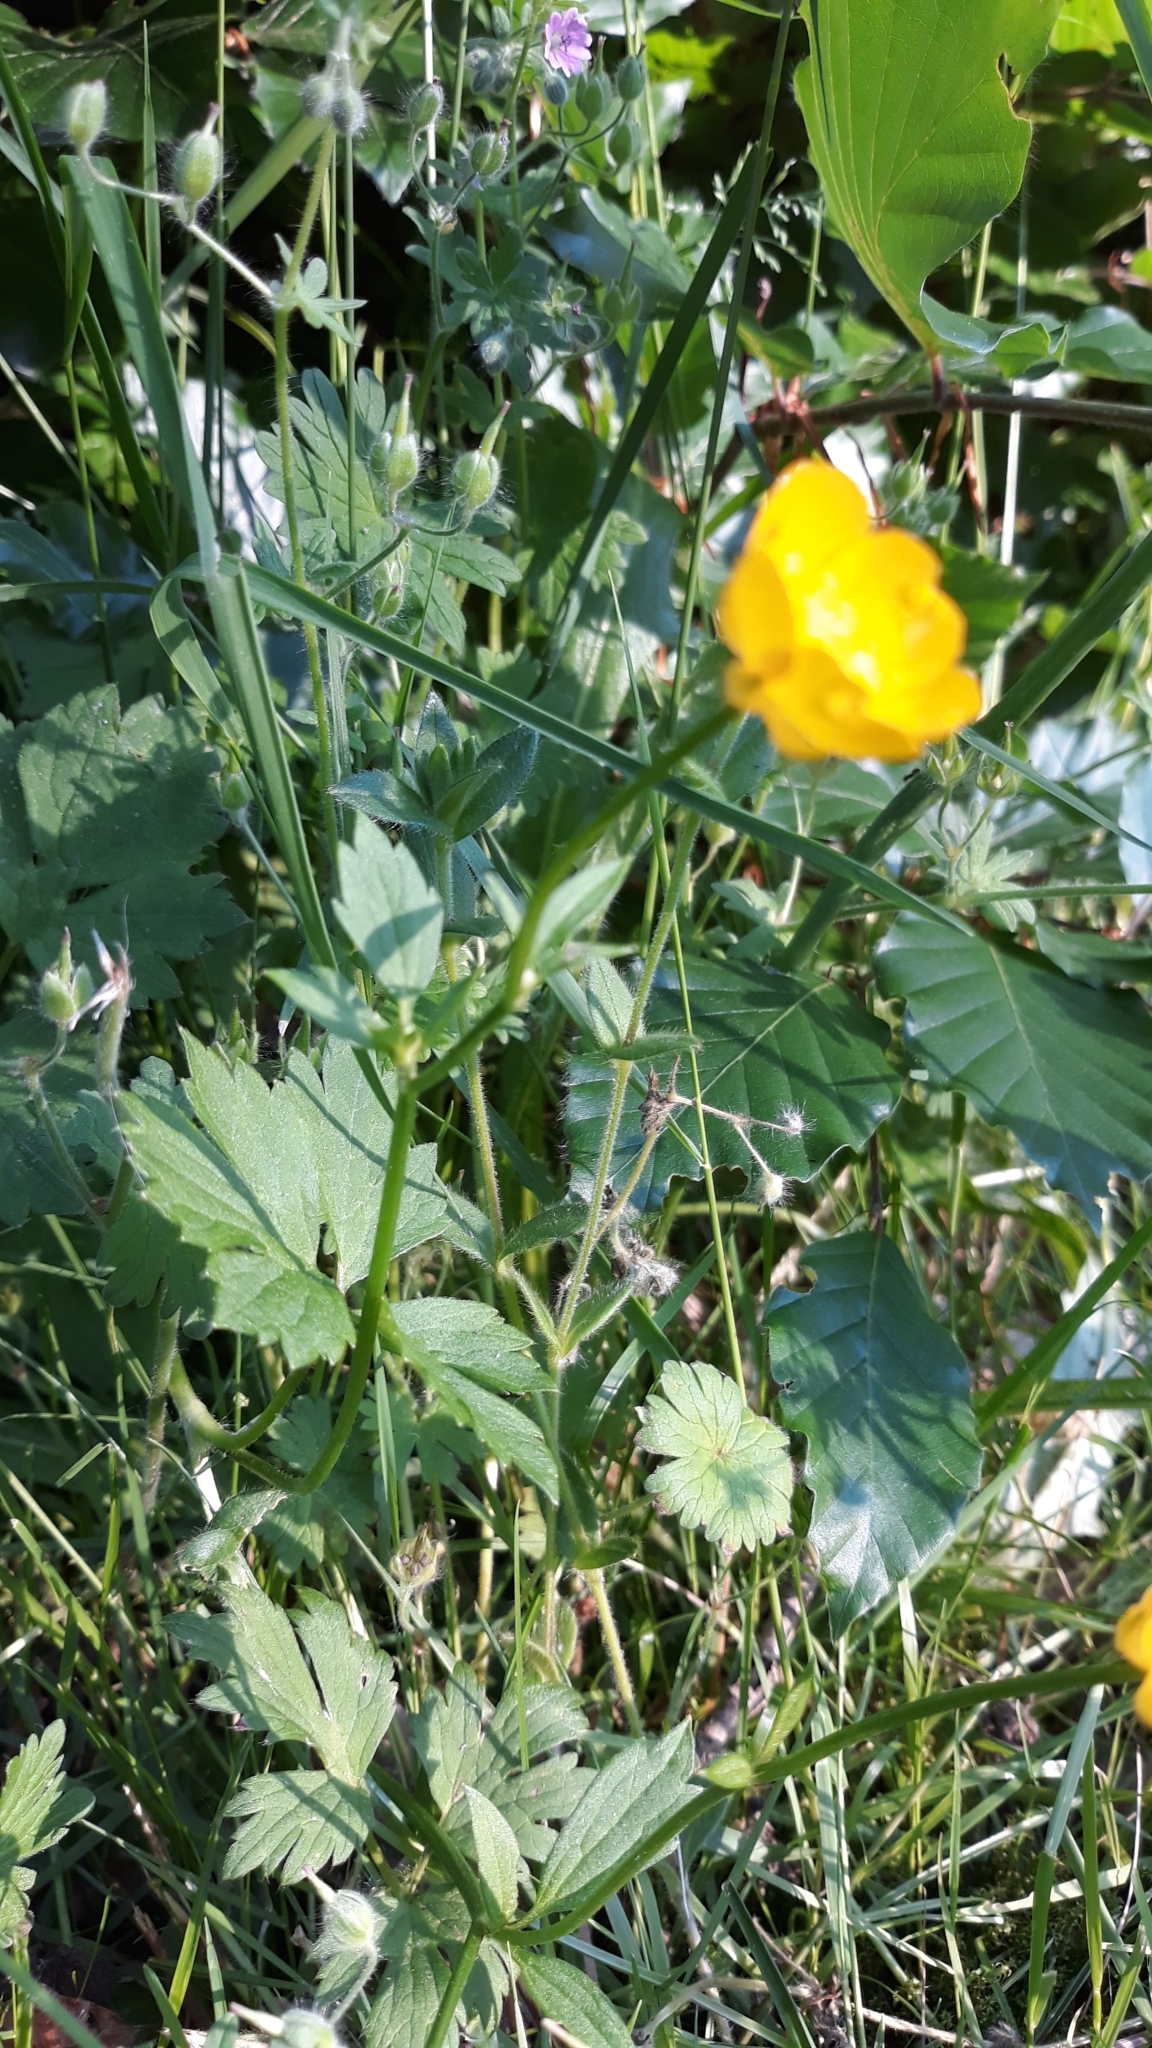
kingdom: Plantae
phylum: Tracheophyta
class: Magnoliopsida
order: Ranunculales
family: Ranunculaceae
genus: Ranunculus
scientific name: Ranunculus repens
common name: Creeping buttercup
